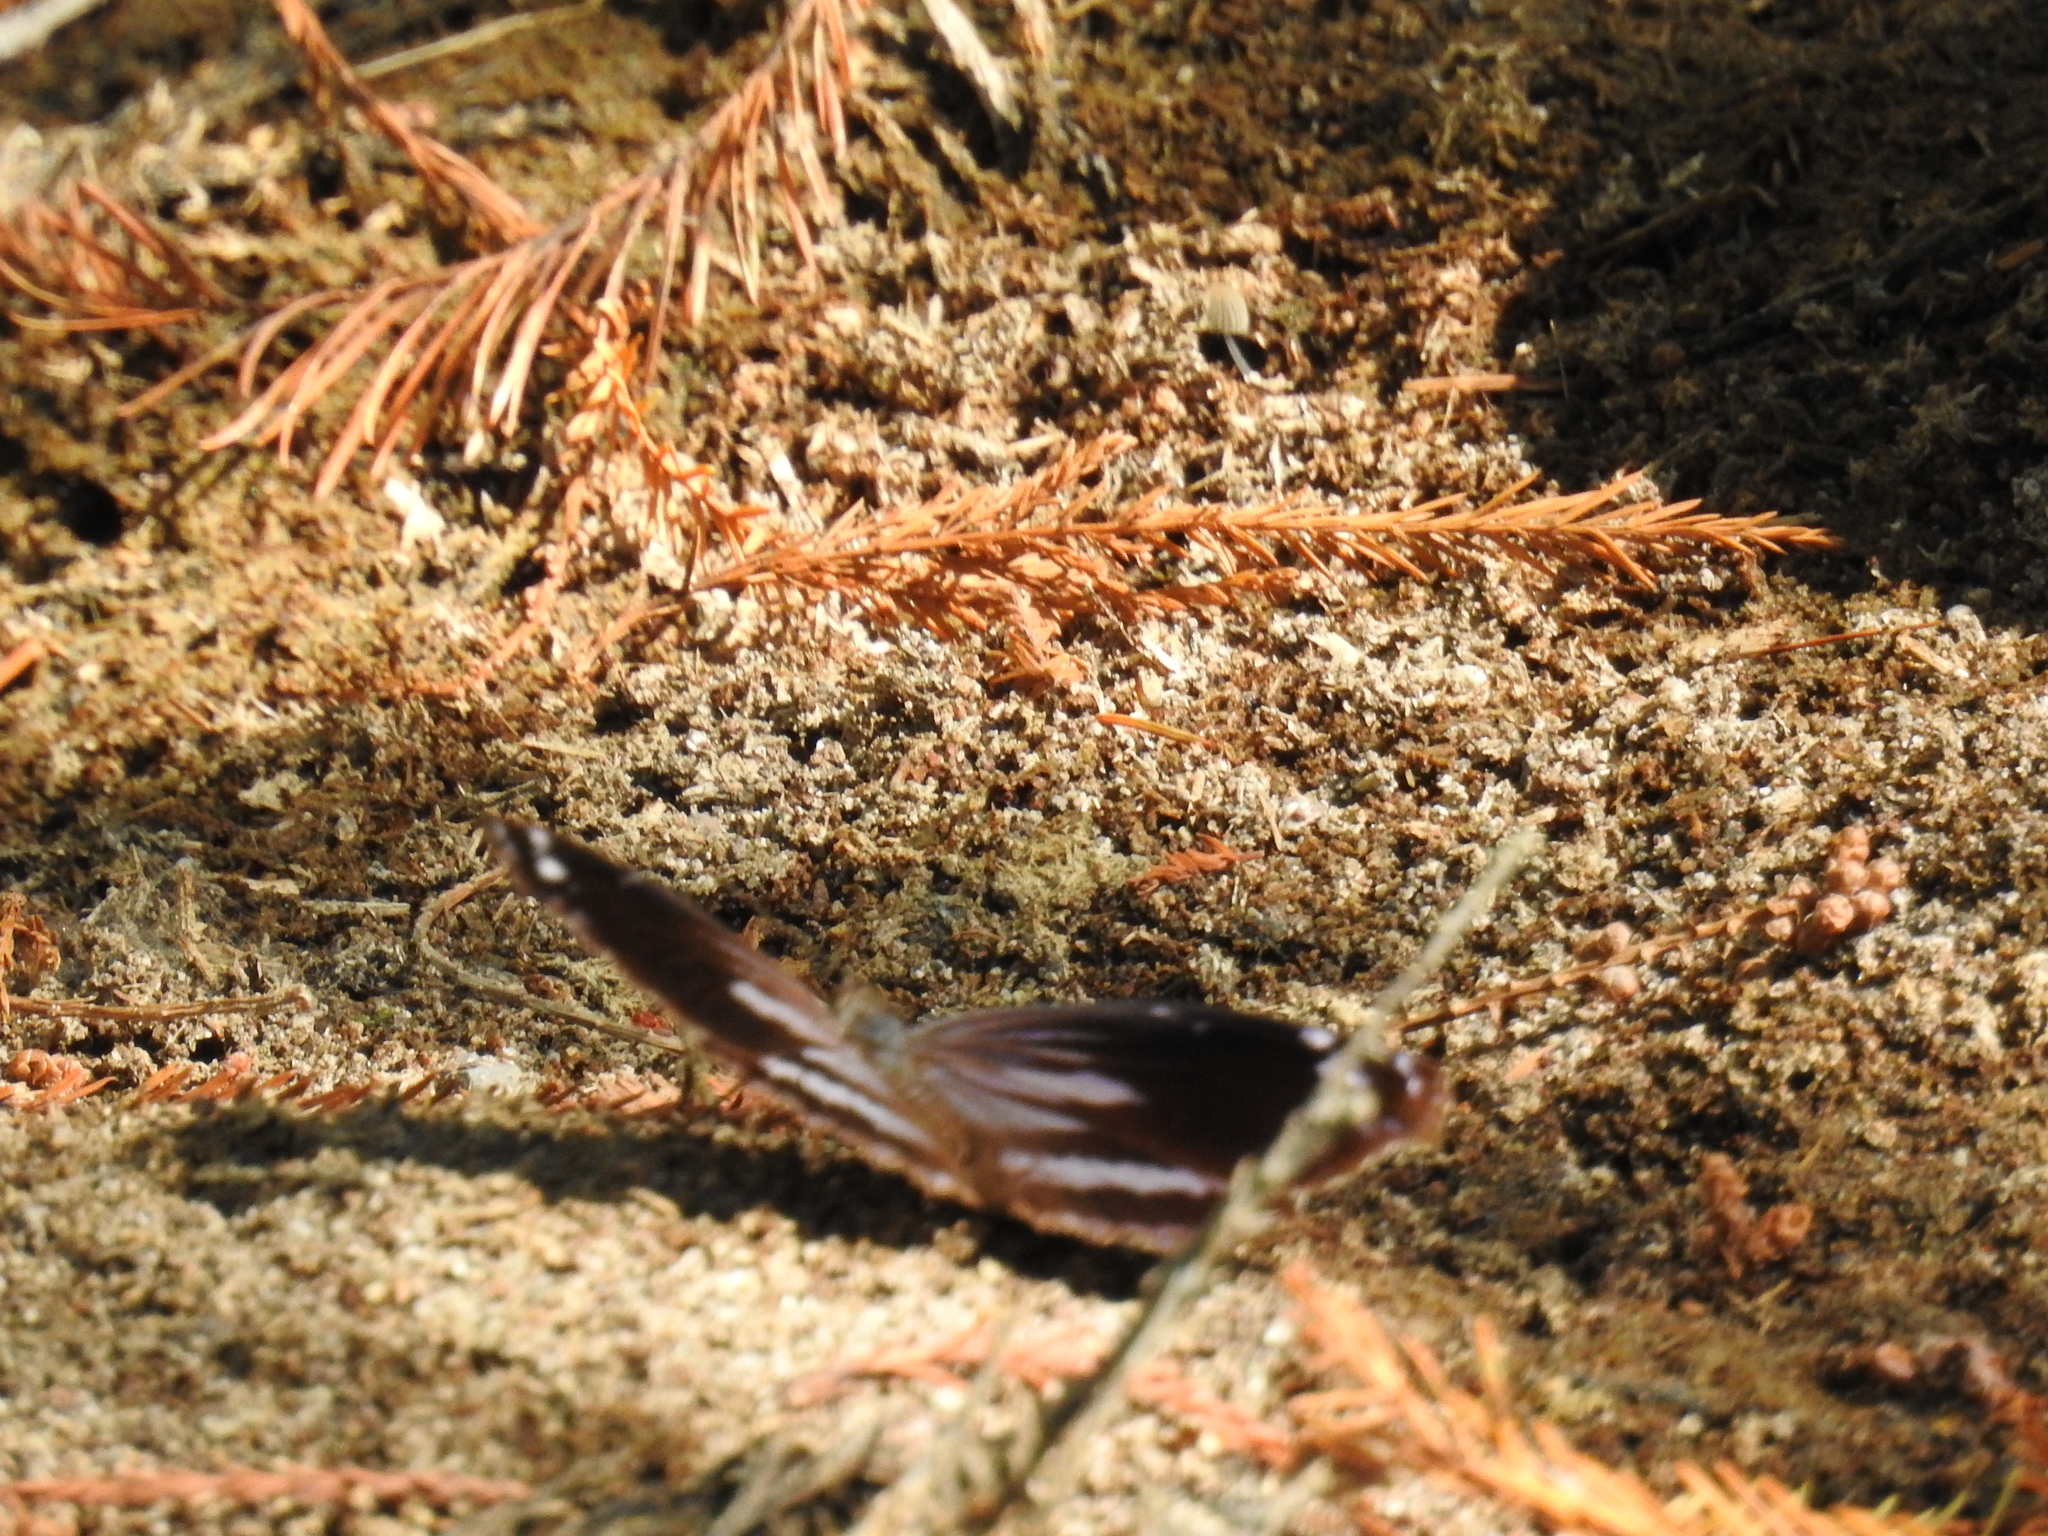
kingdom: Animalia
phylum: Arthropoda
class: Insecta
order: Lepidoptera
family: Nymphalidae
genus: Myscelia
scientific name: Myscelia cyananthe
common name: Blackened bluewing
